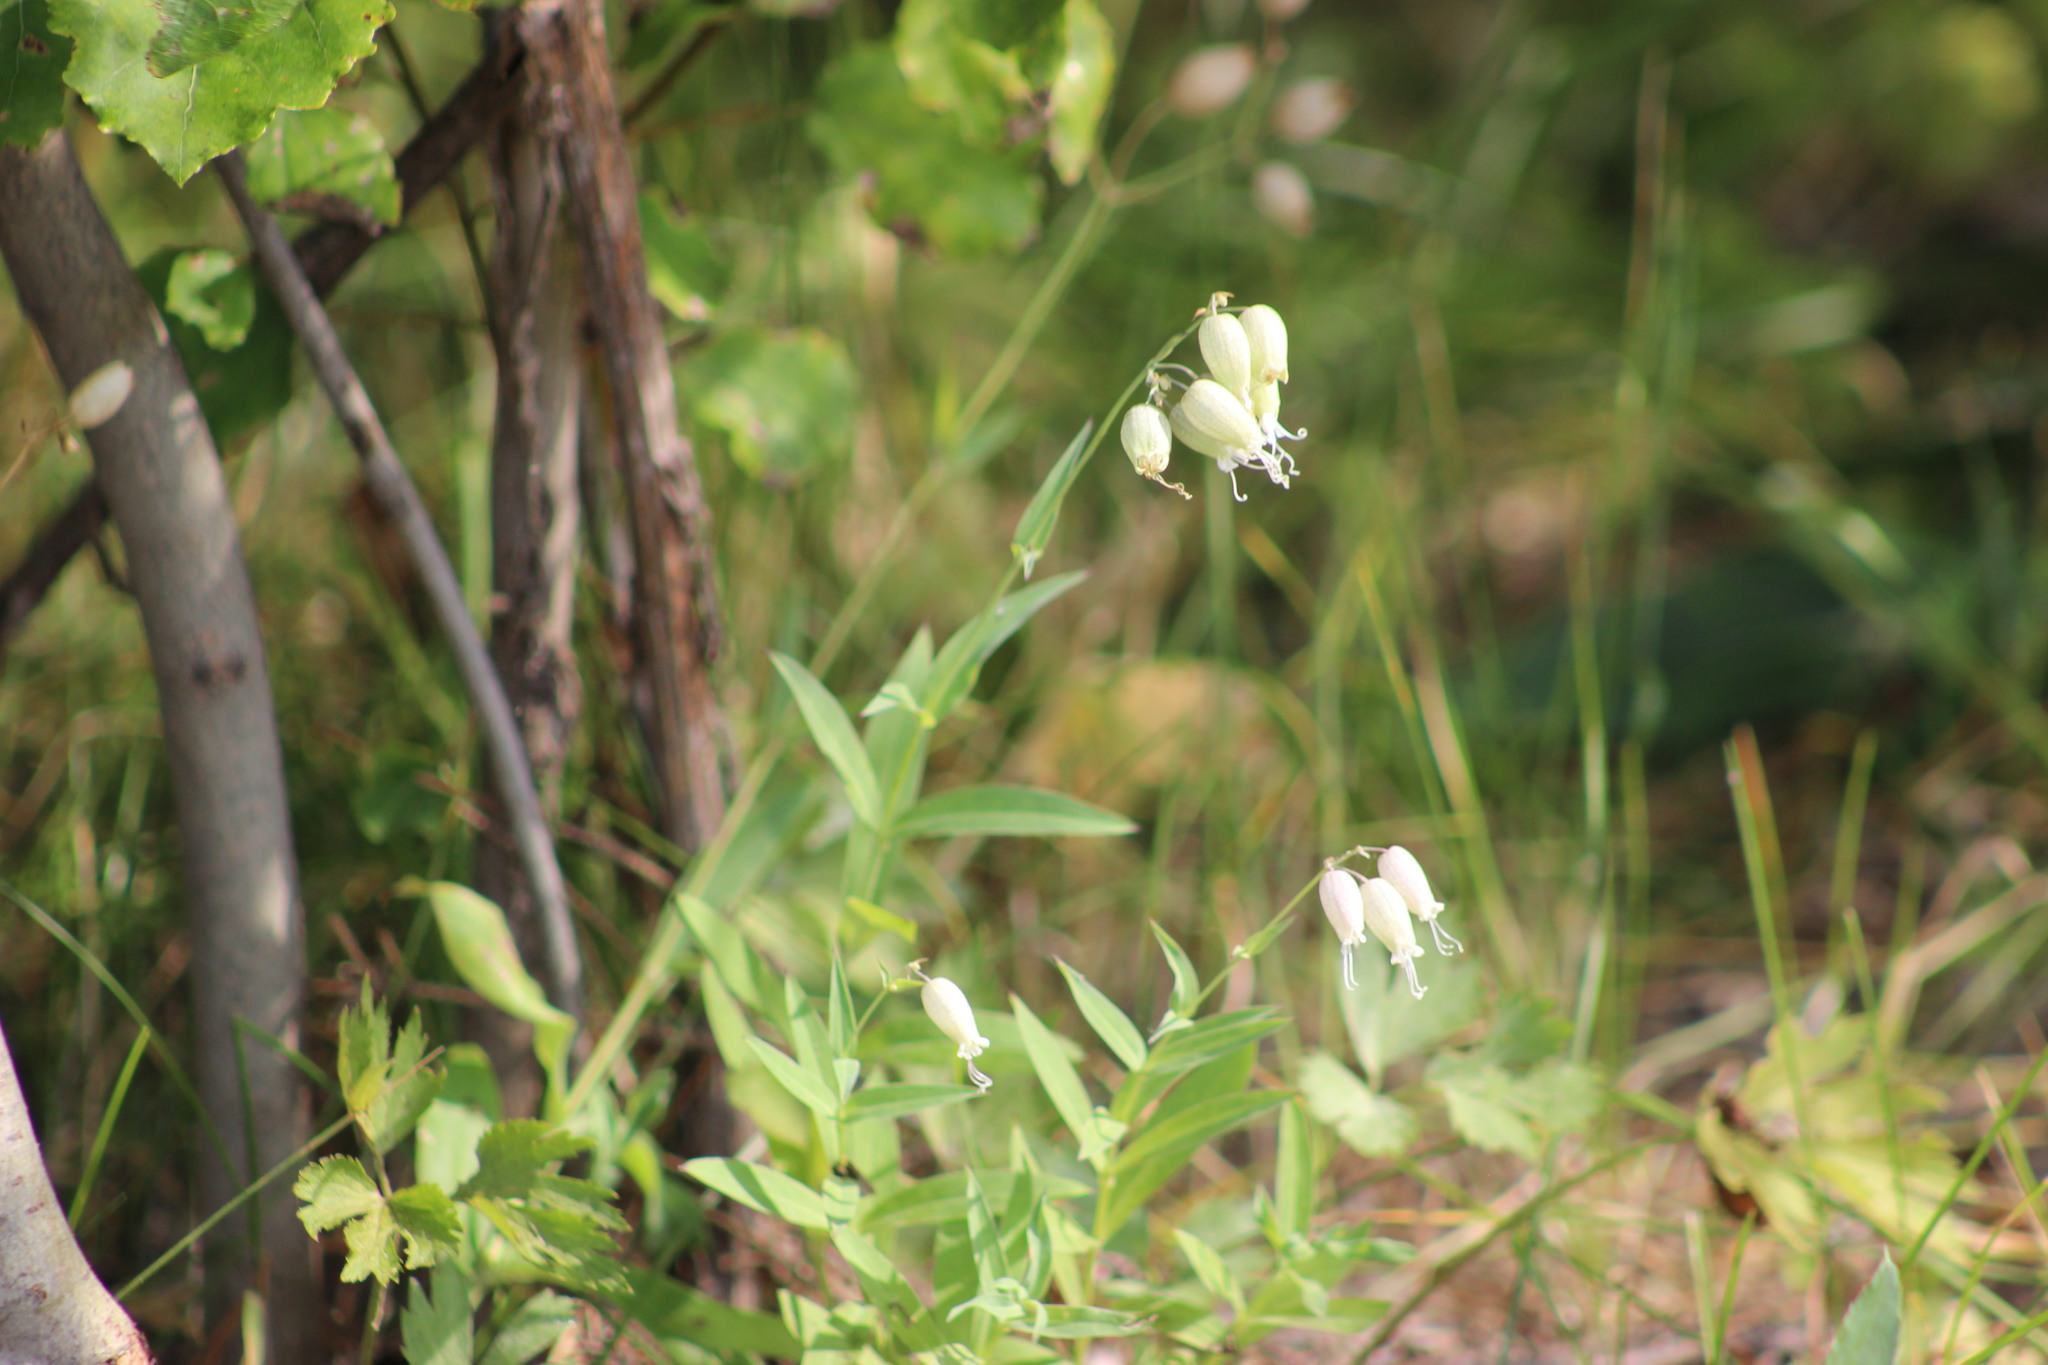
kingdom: Plantae
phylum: Tracheophyta
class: Magnoliopsida
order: Caryophyllales
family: Caryophyllaceae
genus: Silene
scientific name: Silene vulgaris
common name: Bladder campion
